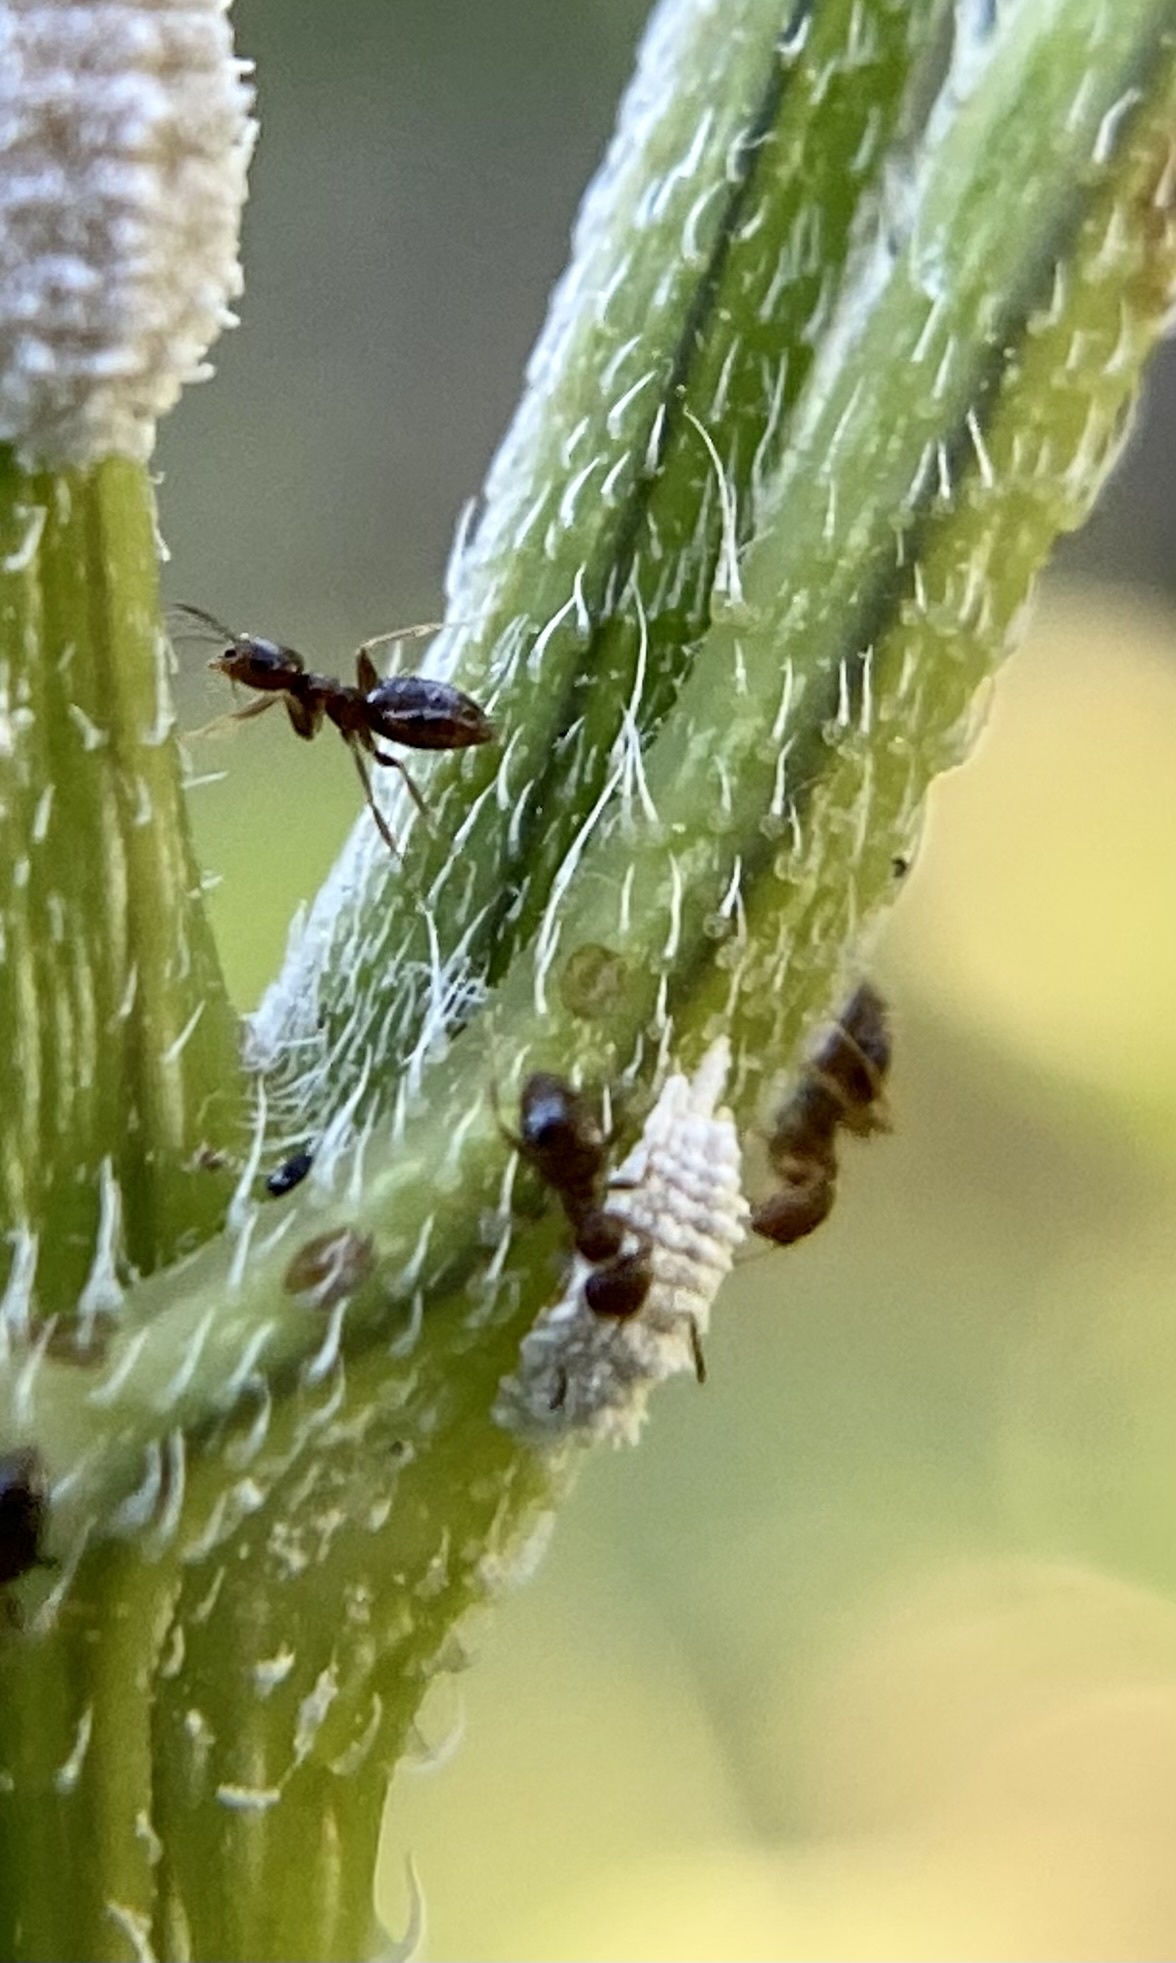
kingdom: Animalia
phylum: Arthropoda
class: Insecta
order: Hymenoptera
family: Formicidae
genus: Brachymyrmex
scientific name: Brachymyrmex patagonicus
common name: Dark rover ant
